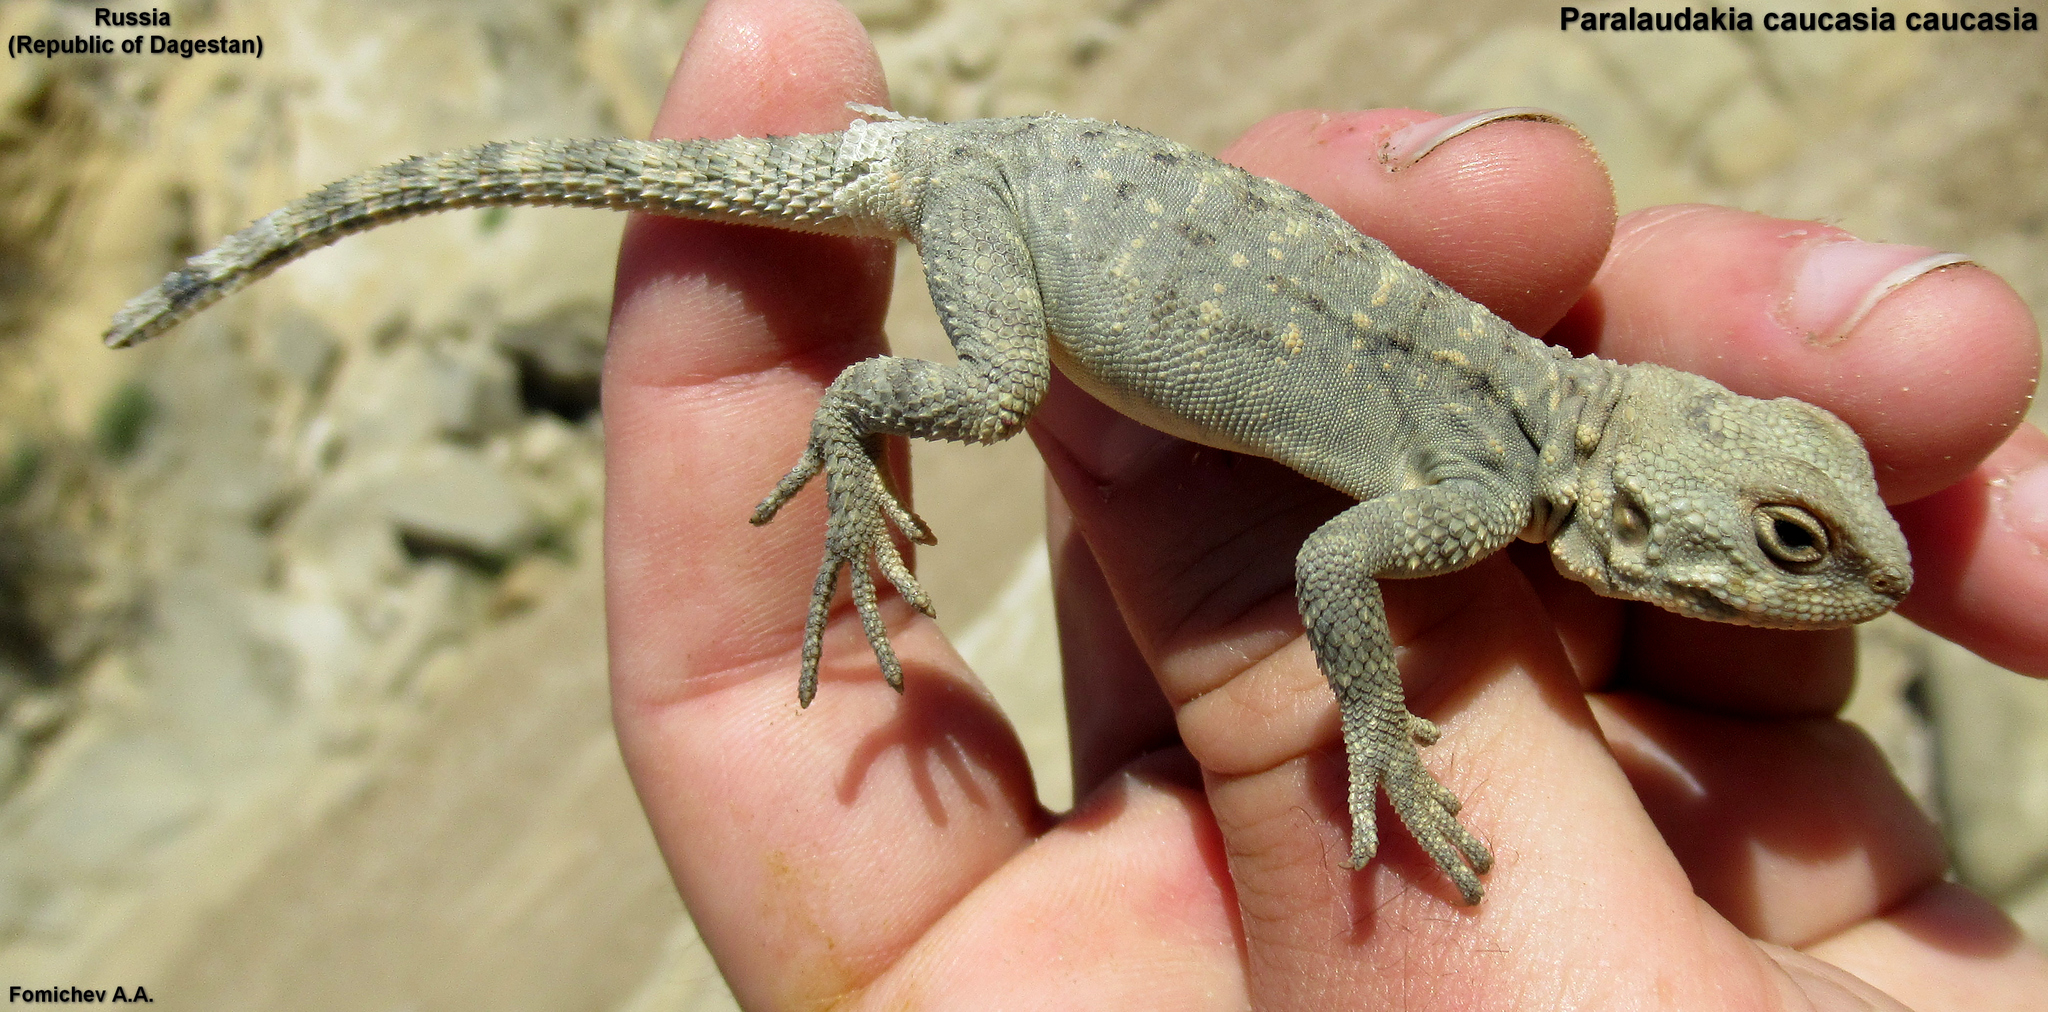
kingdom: Animalia
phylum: Chordata
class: Squamata
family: Agamidae
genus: Paralaudakia
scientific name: Paralaudakia caucasia
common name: Caucasian agama
